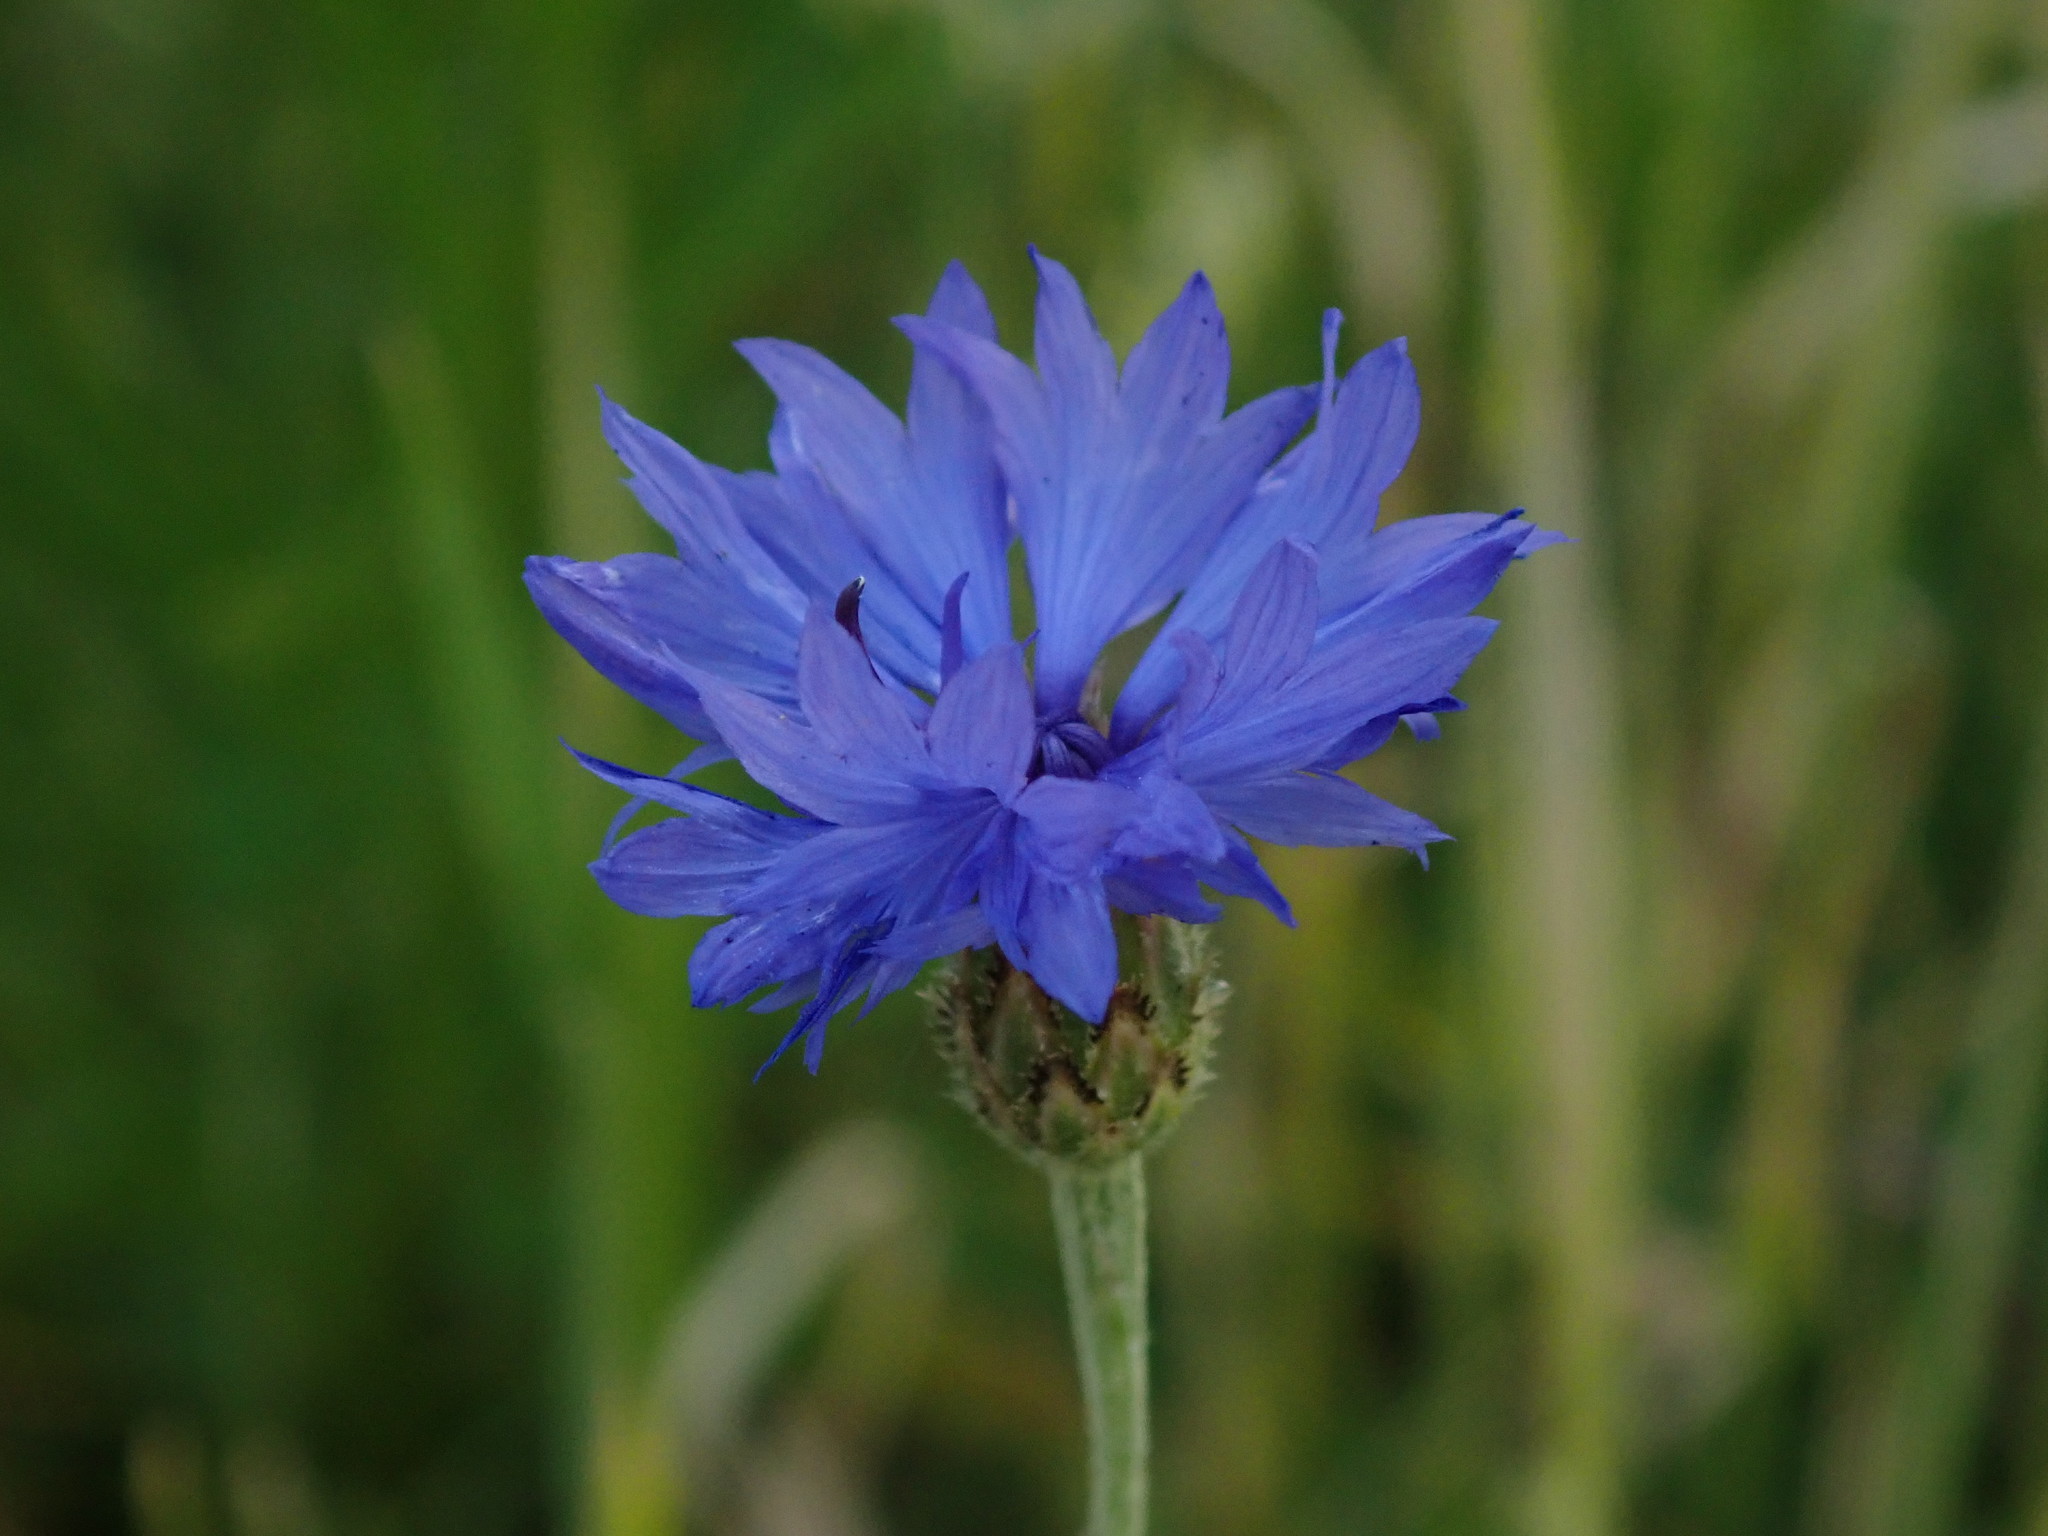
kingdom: Plantae
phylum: Tracheophyta
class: Magnoliopsida
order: Asterales
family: Asteraceae
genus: Centaurea
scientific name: Centaurea cyanus
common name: Cornflower
